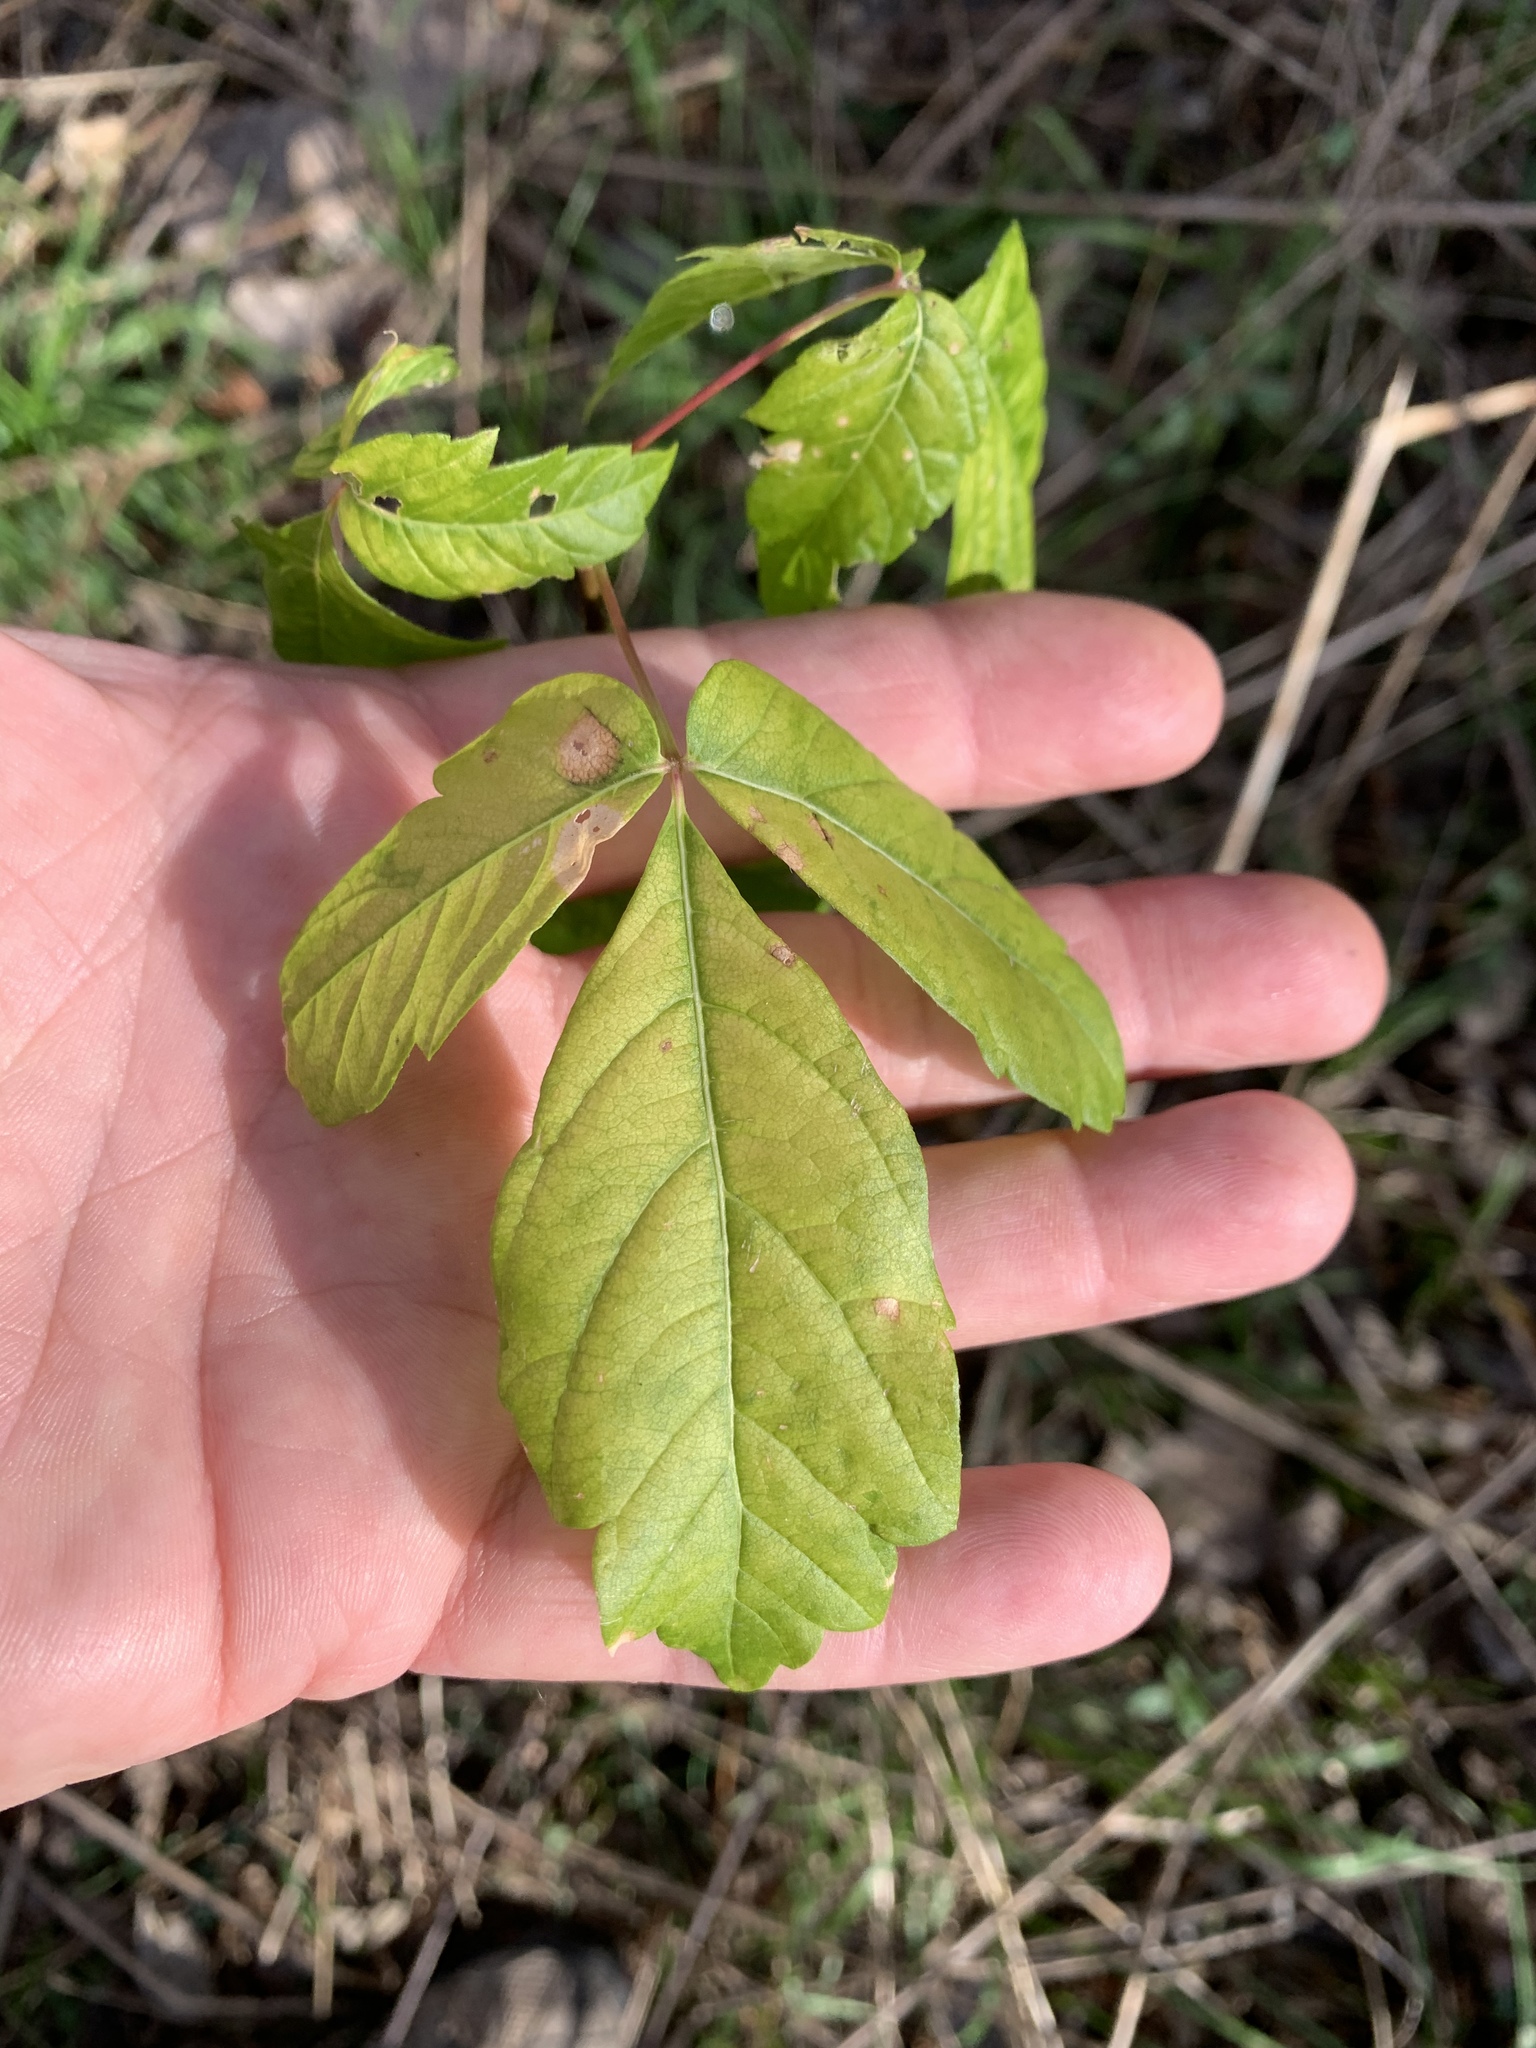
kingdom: Plantae
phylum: Tracheophyta
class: Magnoliopsida
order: Sapindales
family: Sapindaceae
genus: Acer
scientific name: Acer negundo
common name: Ashleaf maple
